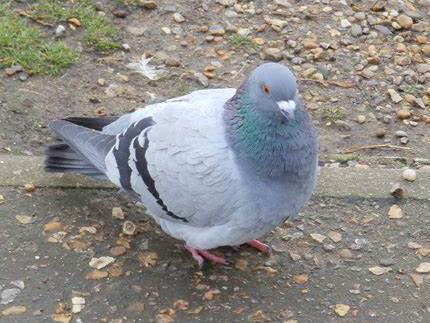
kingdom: Animalia
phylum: Chordata
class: Aves
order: Columbiformes
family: Columbidae
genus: Columba
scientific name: Columba livia
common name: Rock pigeon
